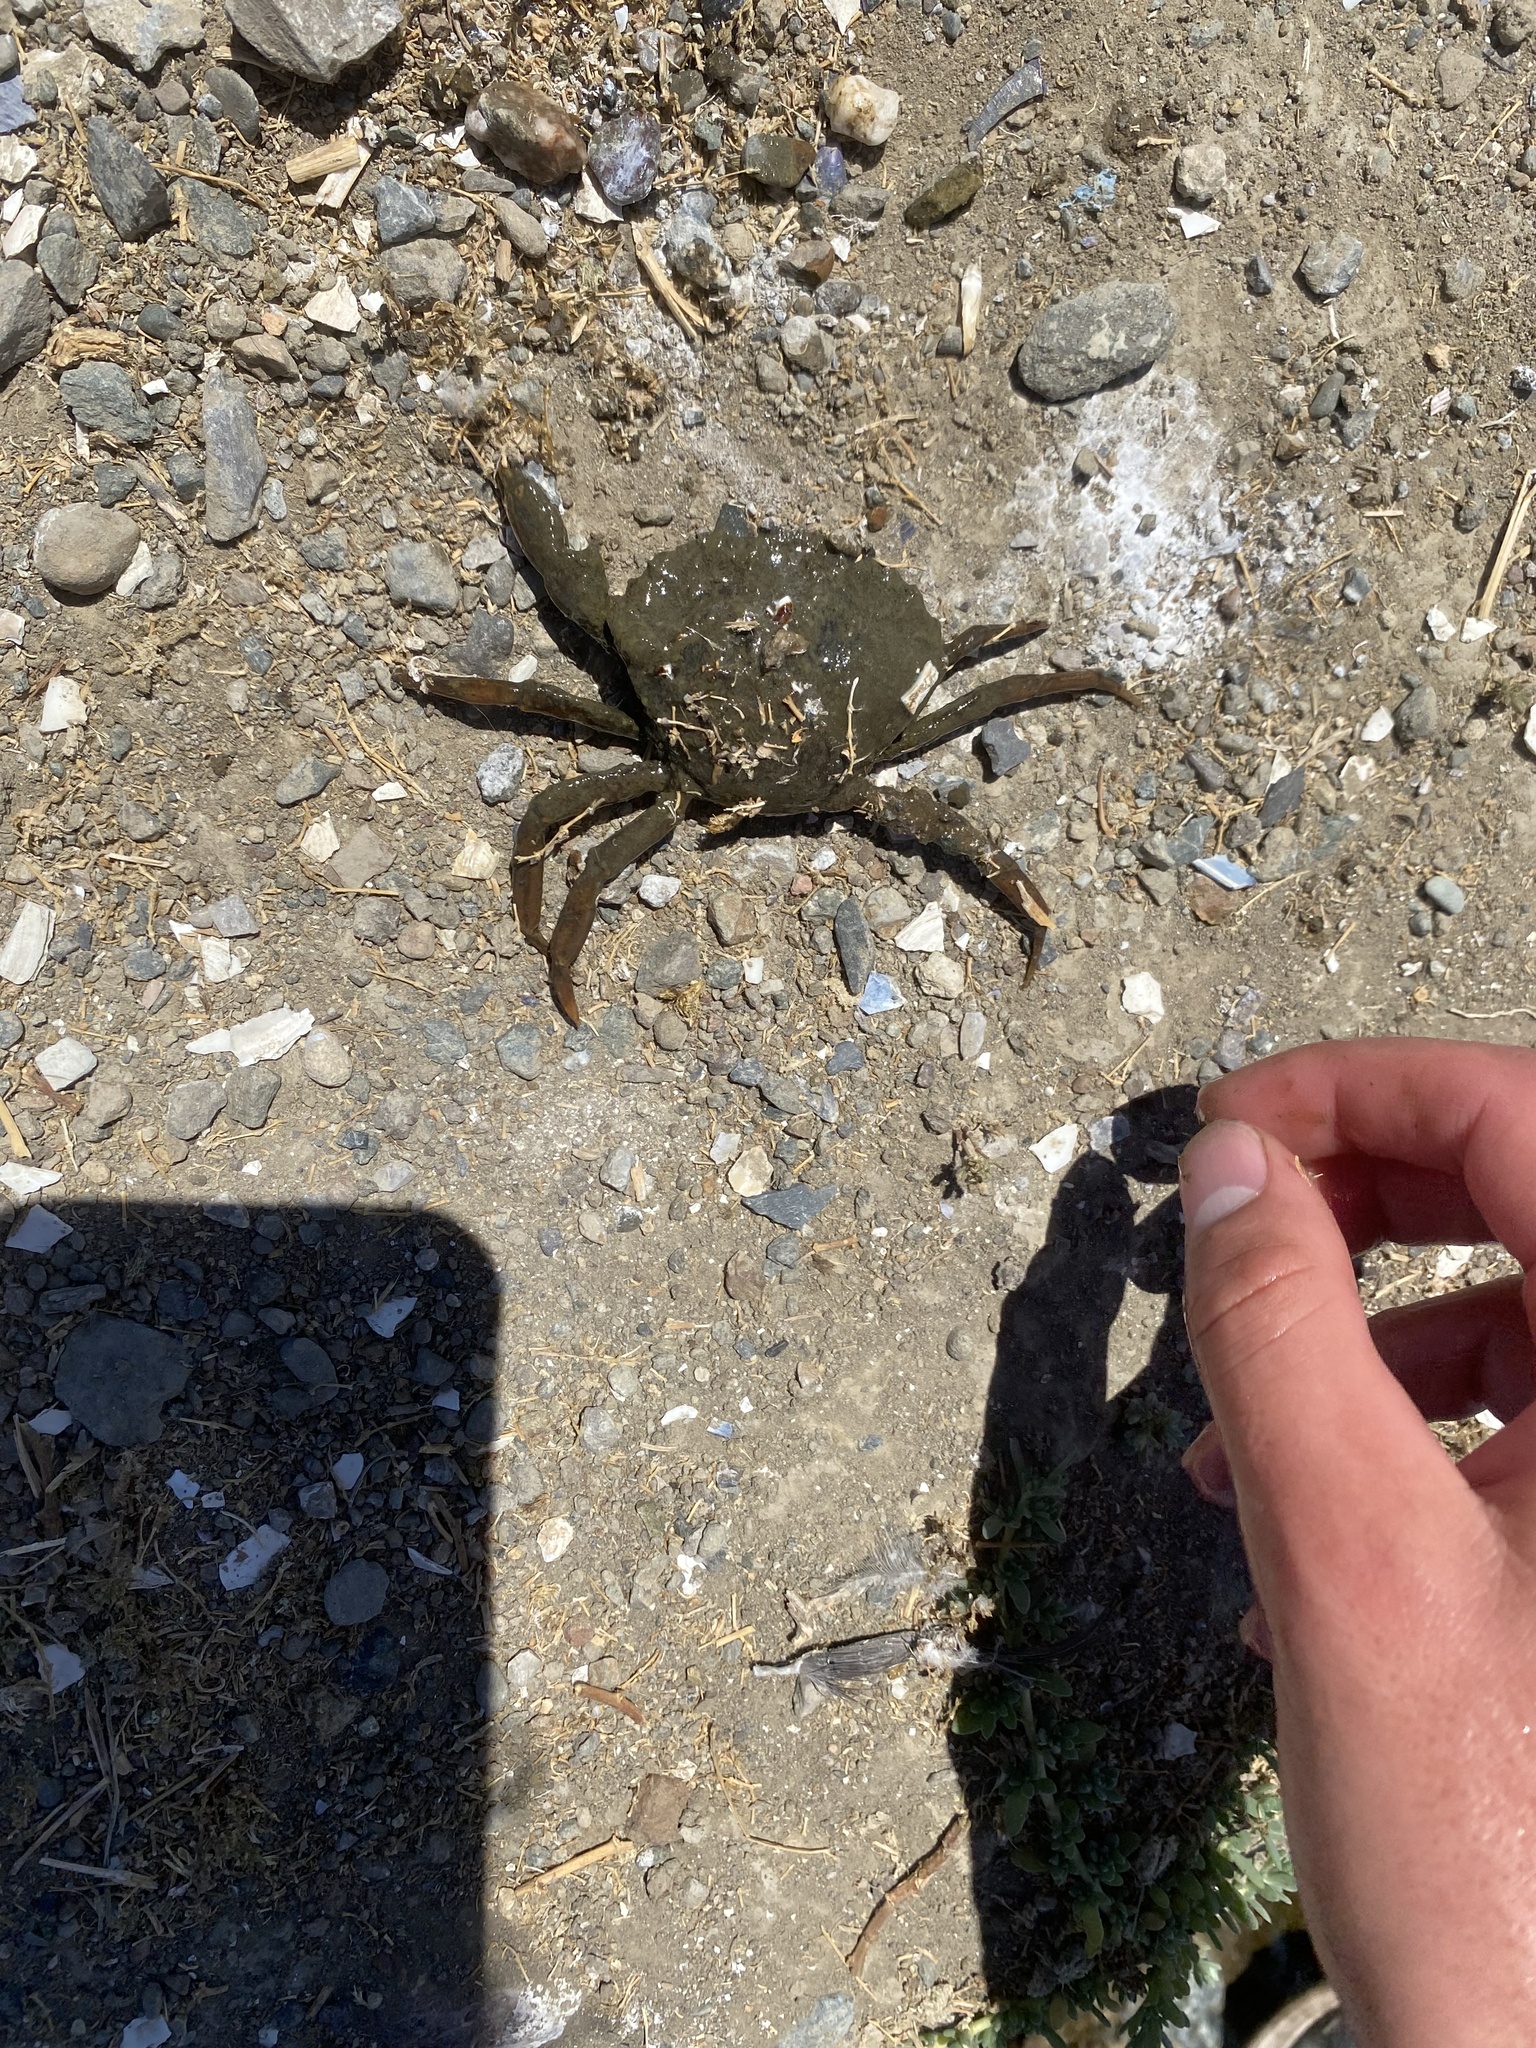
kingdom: Animalia
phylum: Arthropoda
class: Malacostraca
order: Decapoda
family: Carcinidae
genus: Carcinus
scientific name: Carcinus maenas
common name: European green crab
